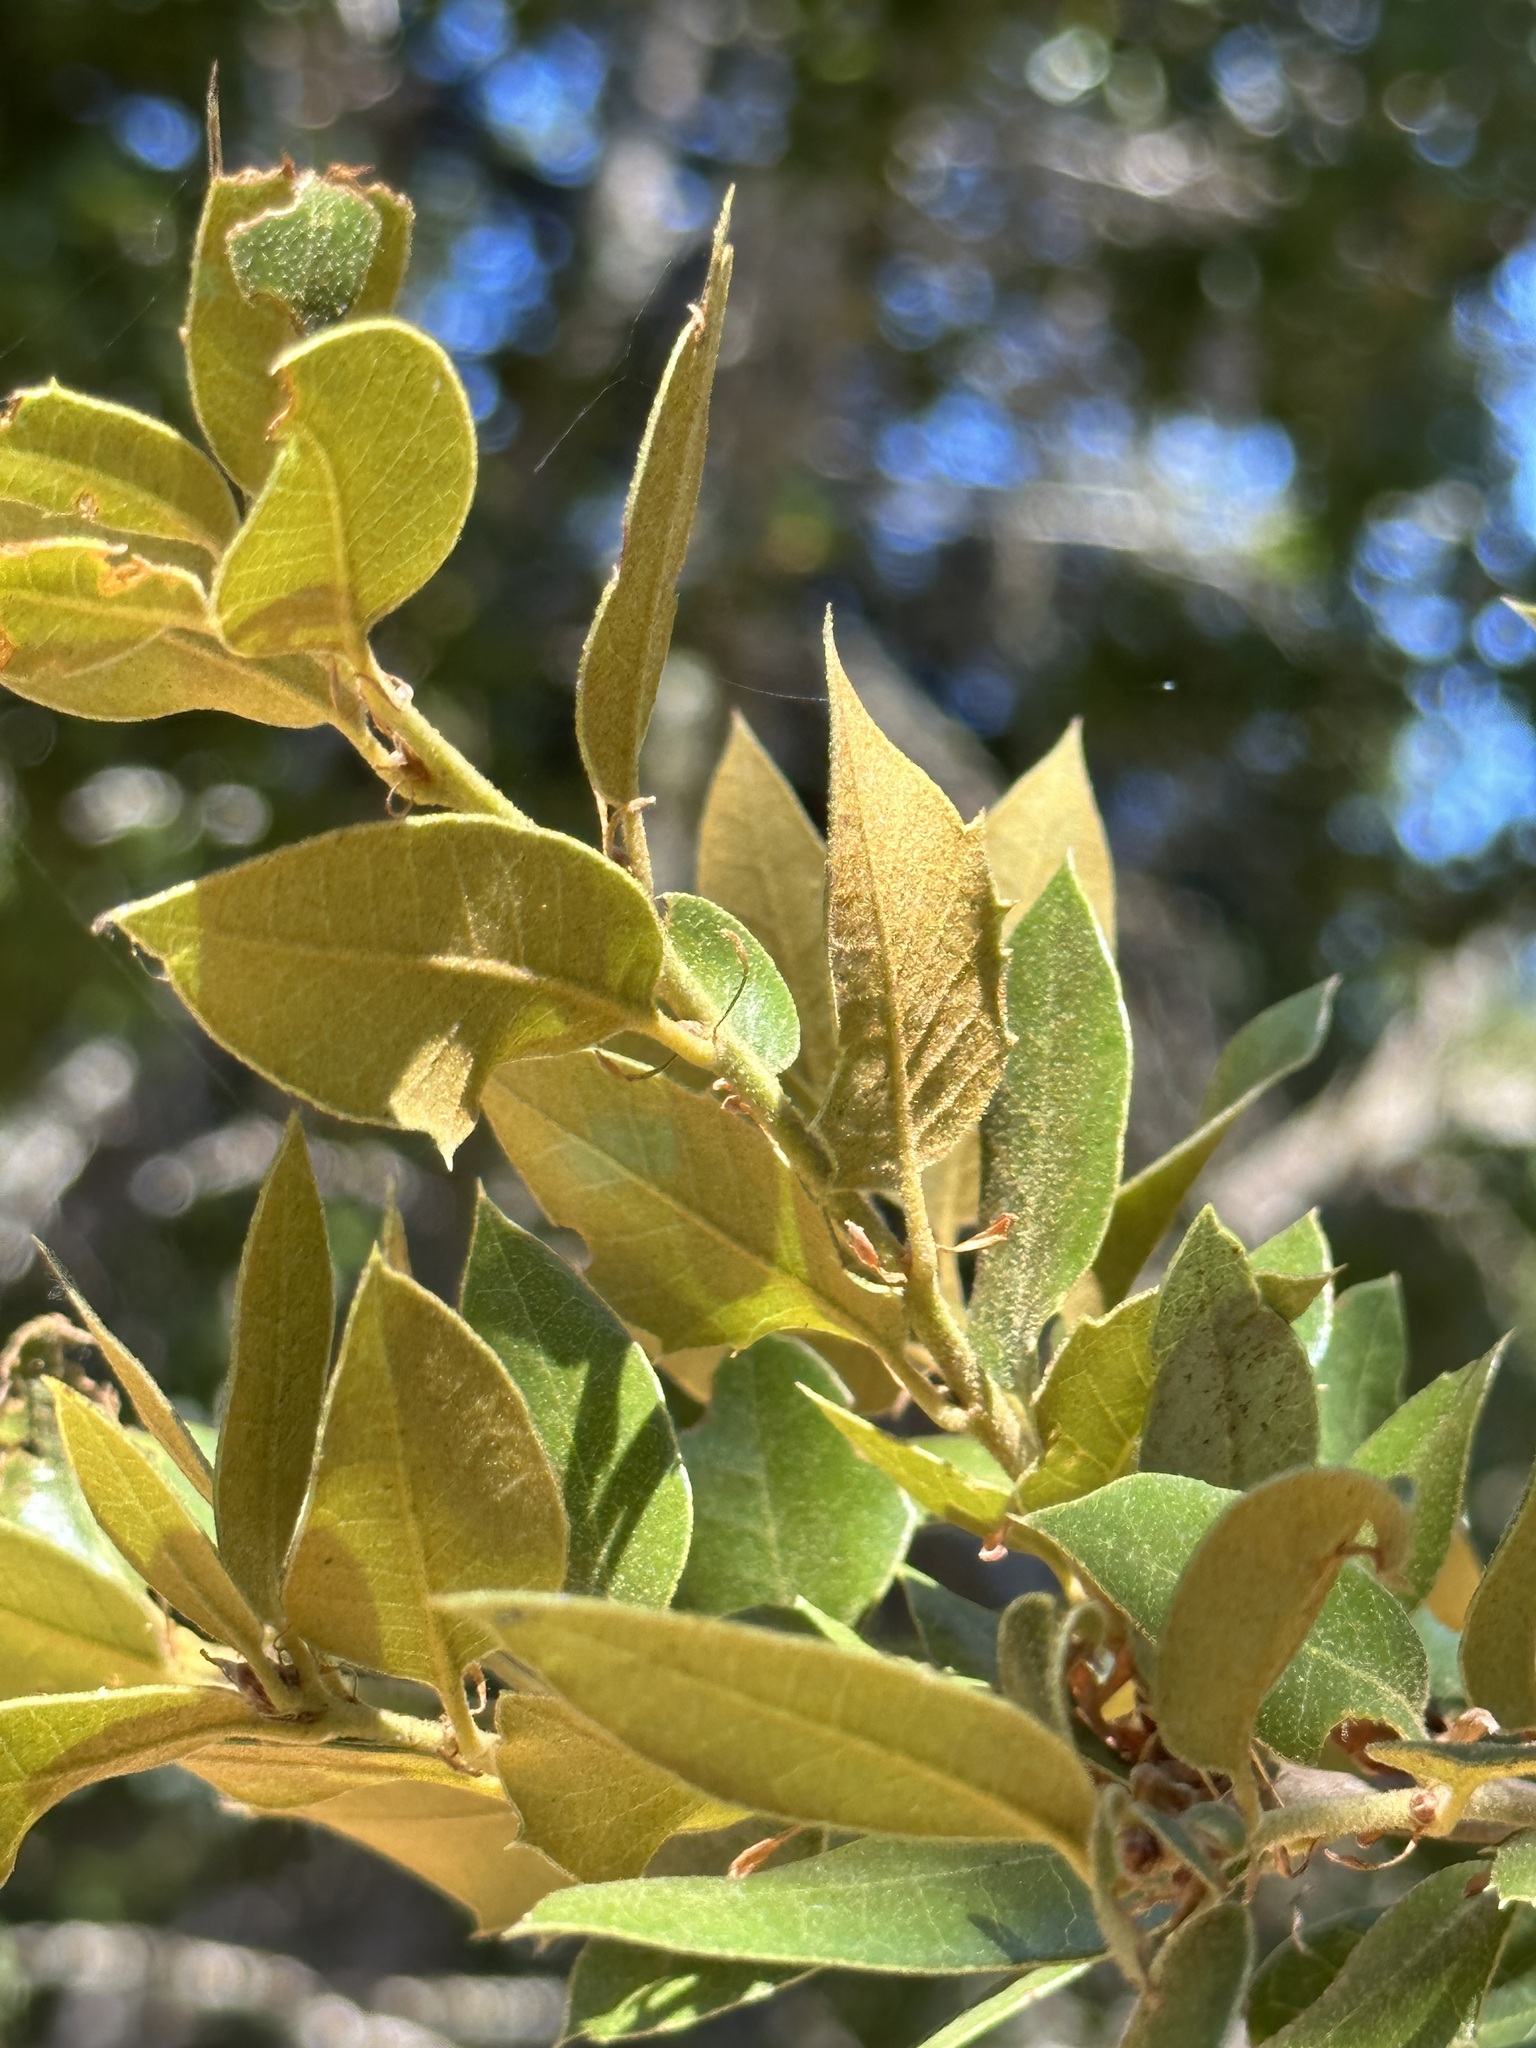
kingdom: Plantae
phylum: Tracheophyta
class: Magnoliopsida
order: Fagales
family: Fagaceae
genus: Quercus
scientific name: Quercus chrysolepis
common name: Canyon live oak
